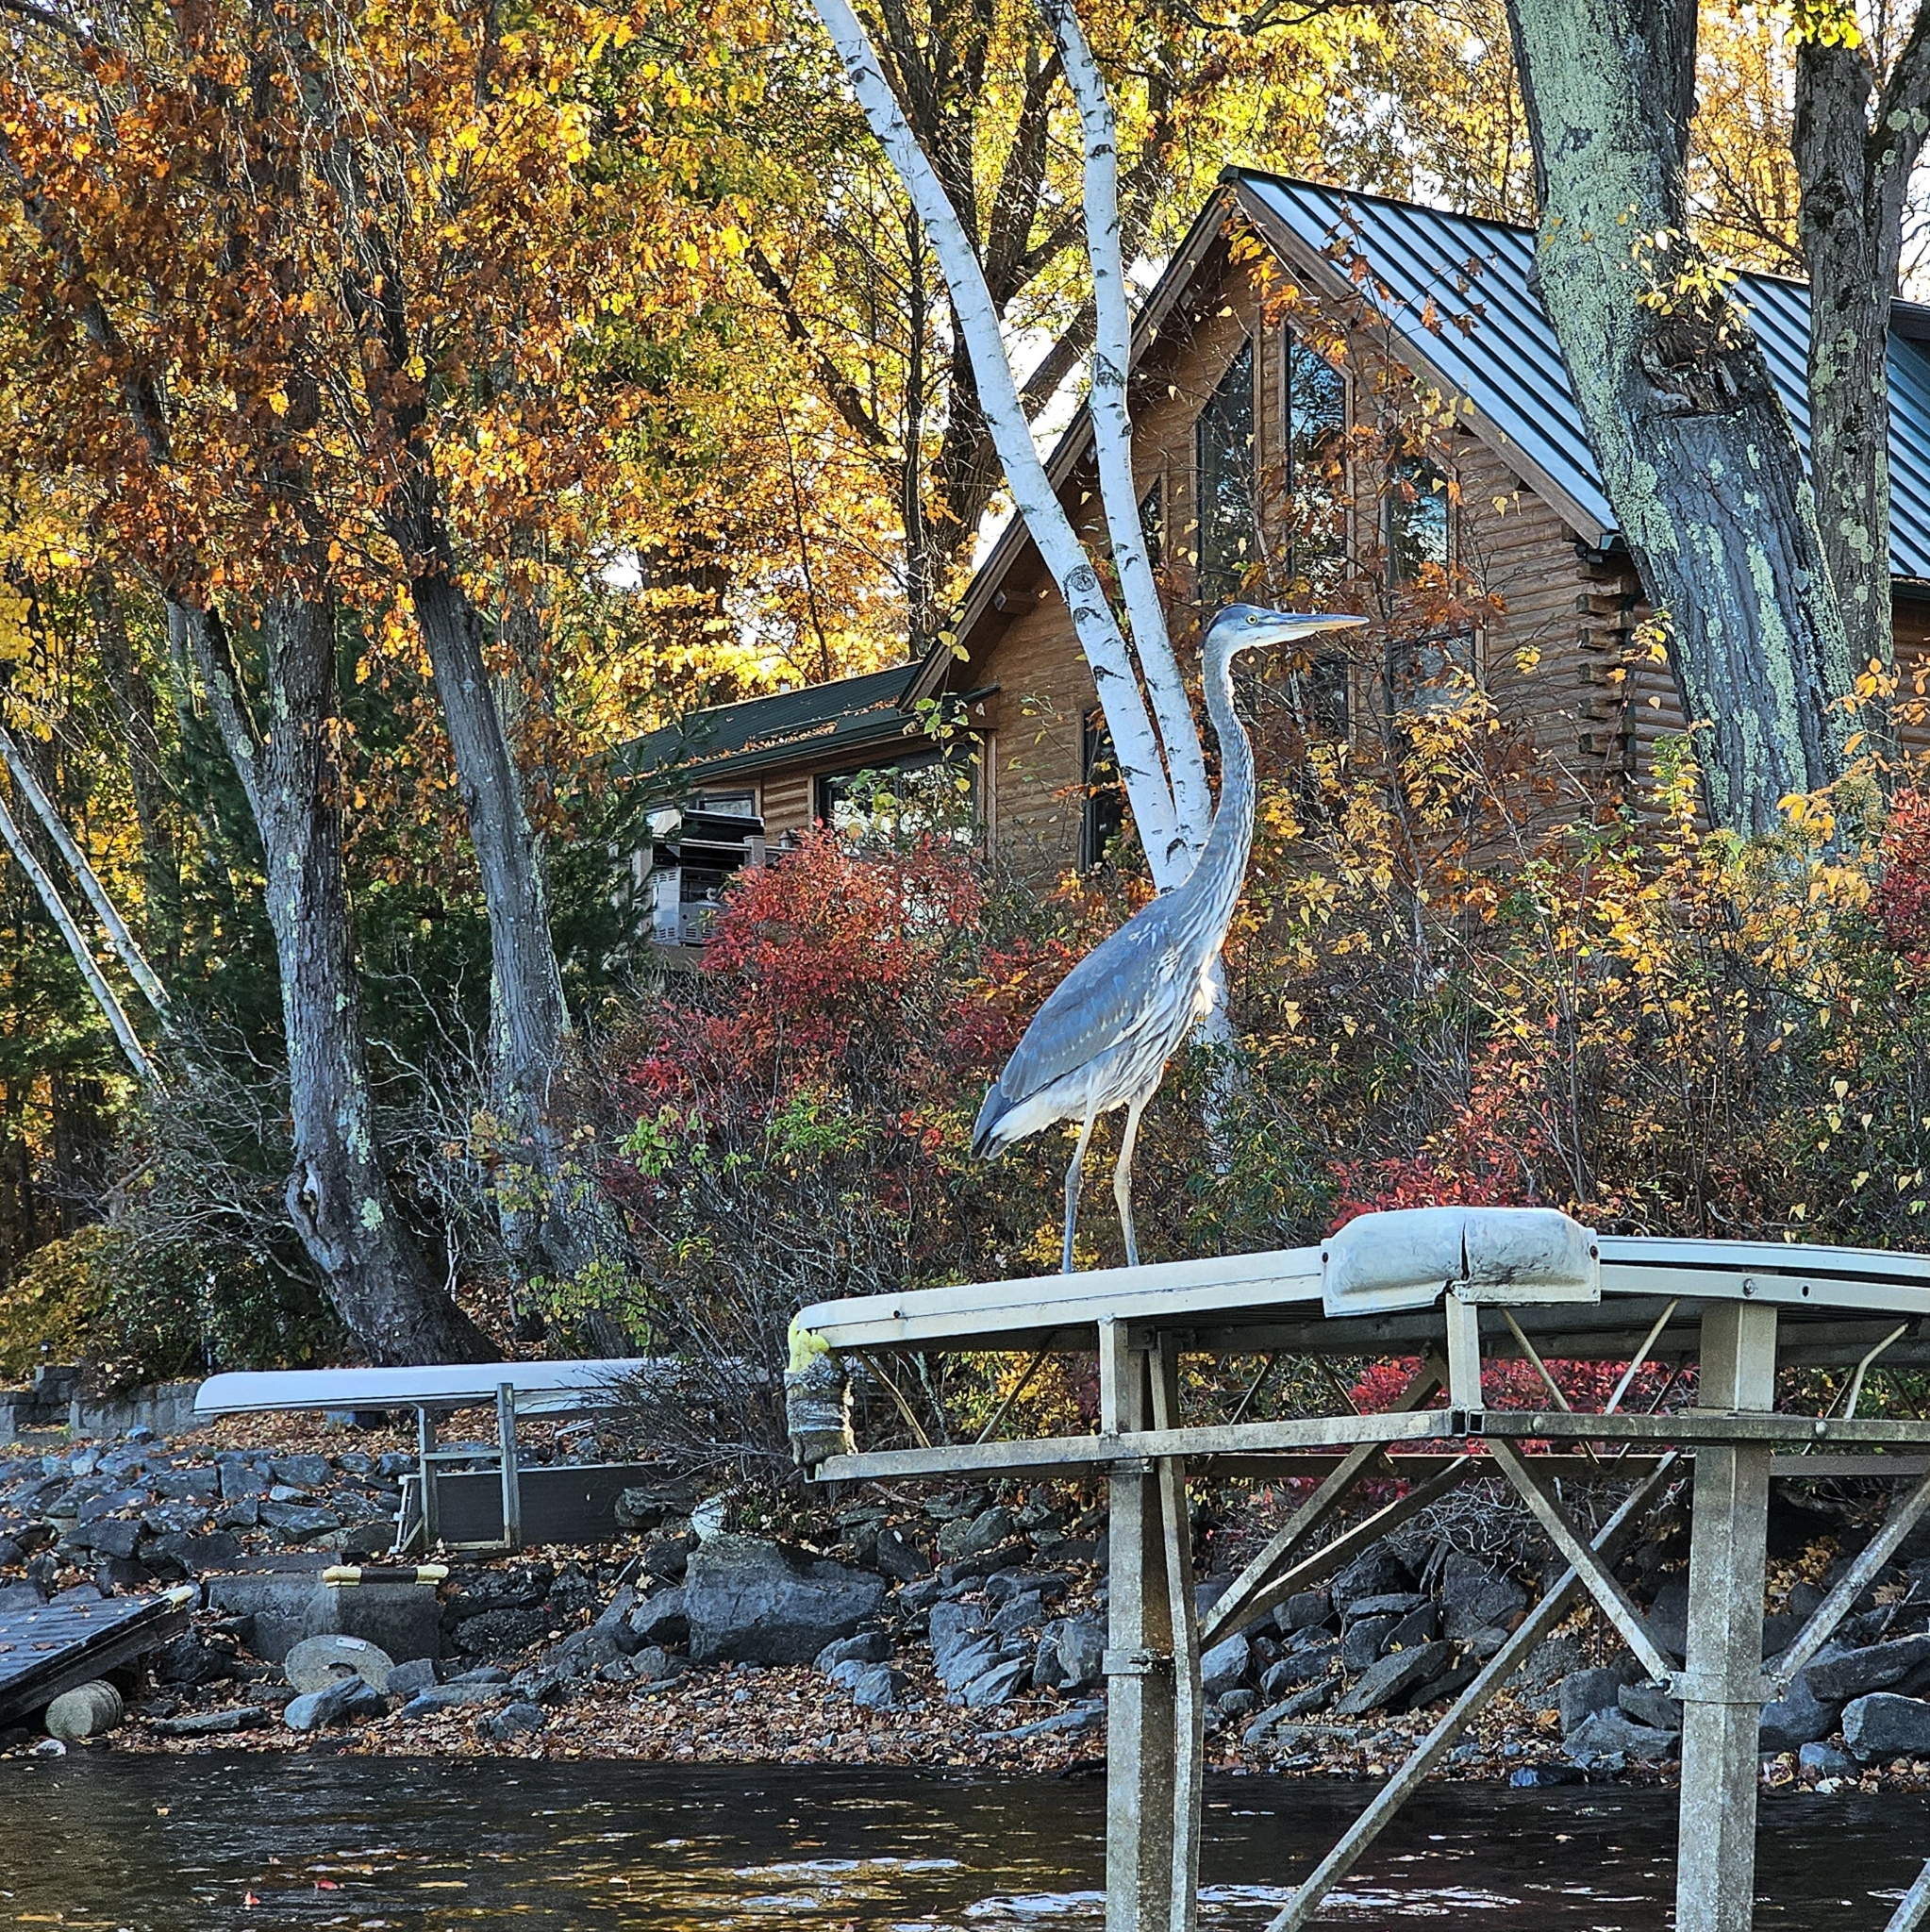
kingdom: Animalia
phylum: Chordata
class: Aves
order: Pelecaniformes
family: Ardeidae
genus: Ardea
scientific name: Ardea herodias
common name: Great blue heron
